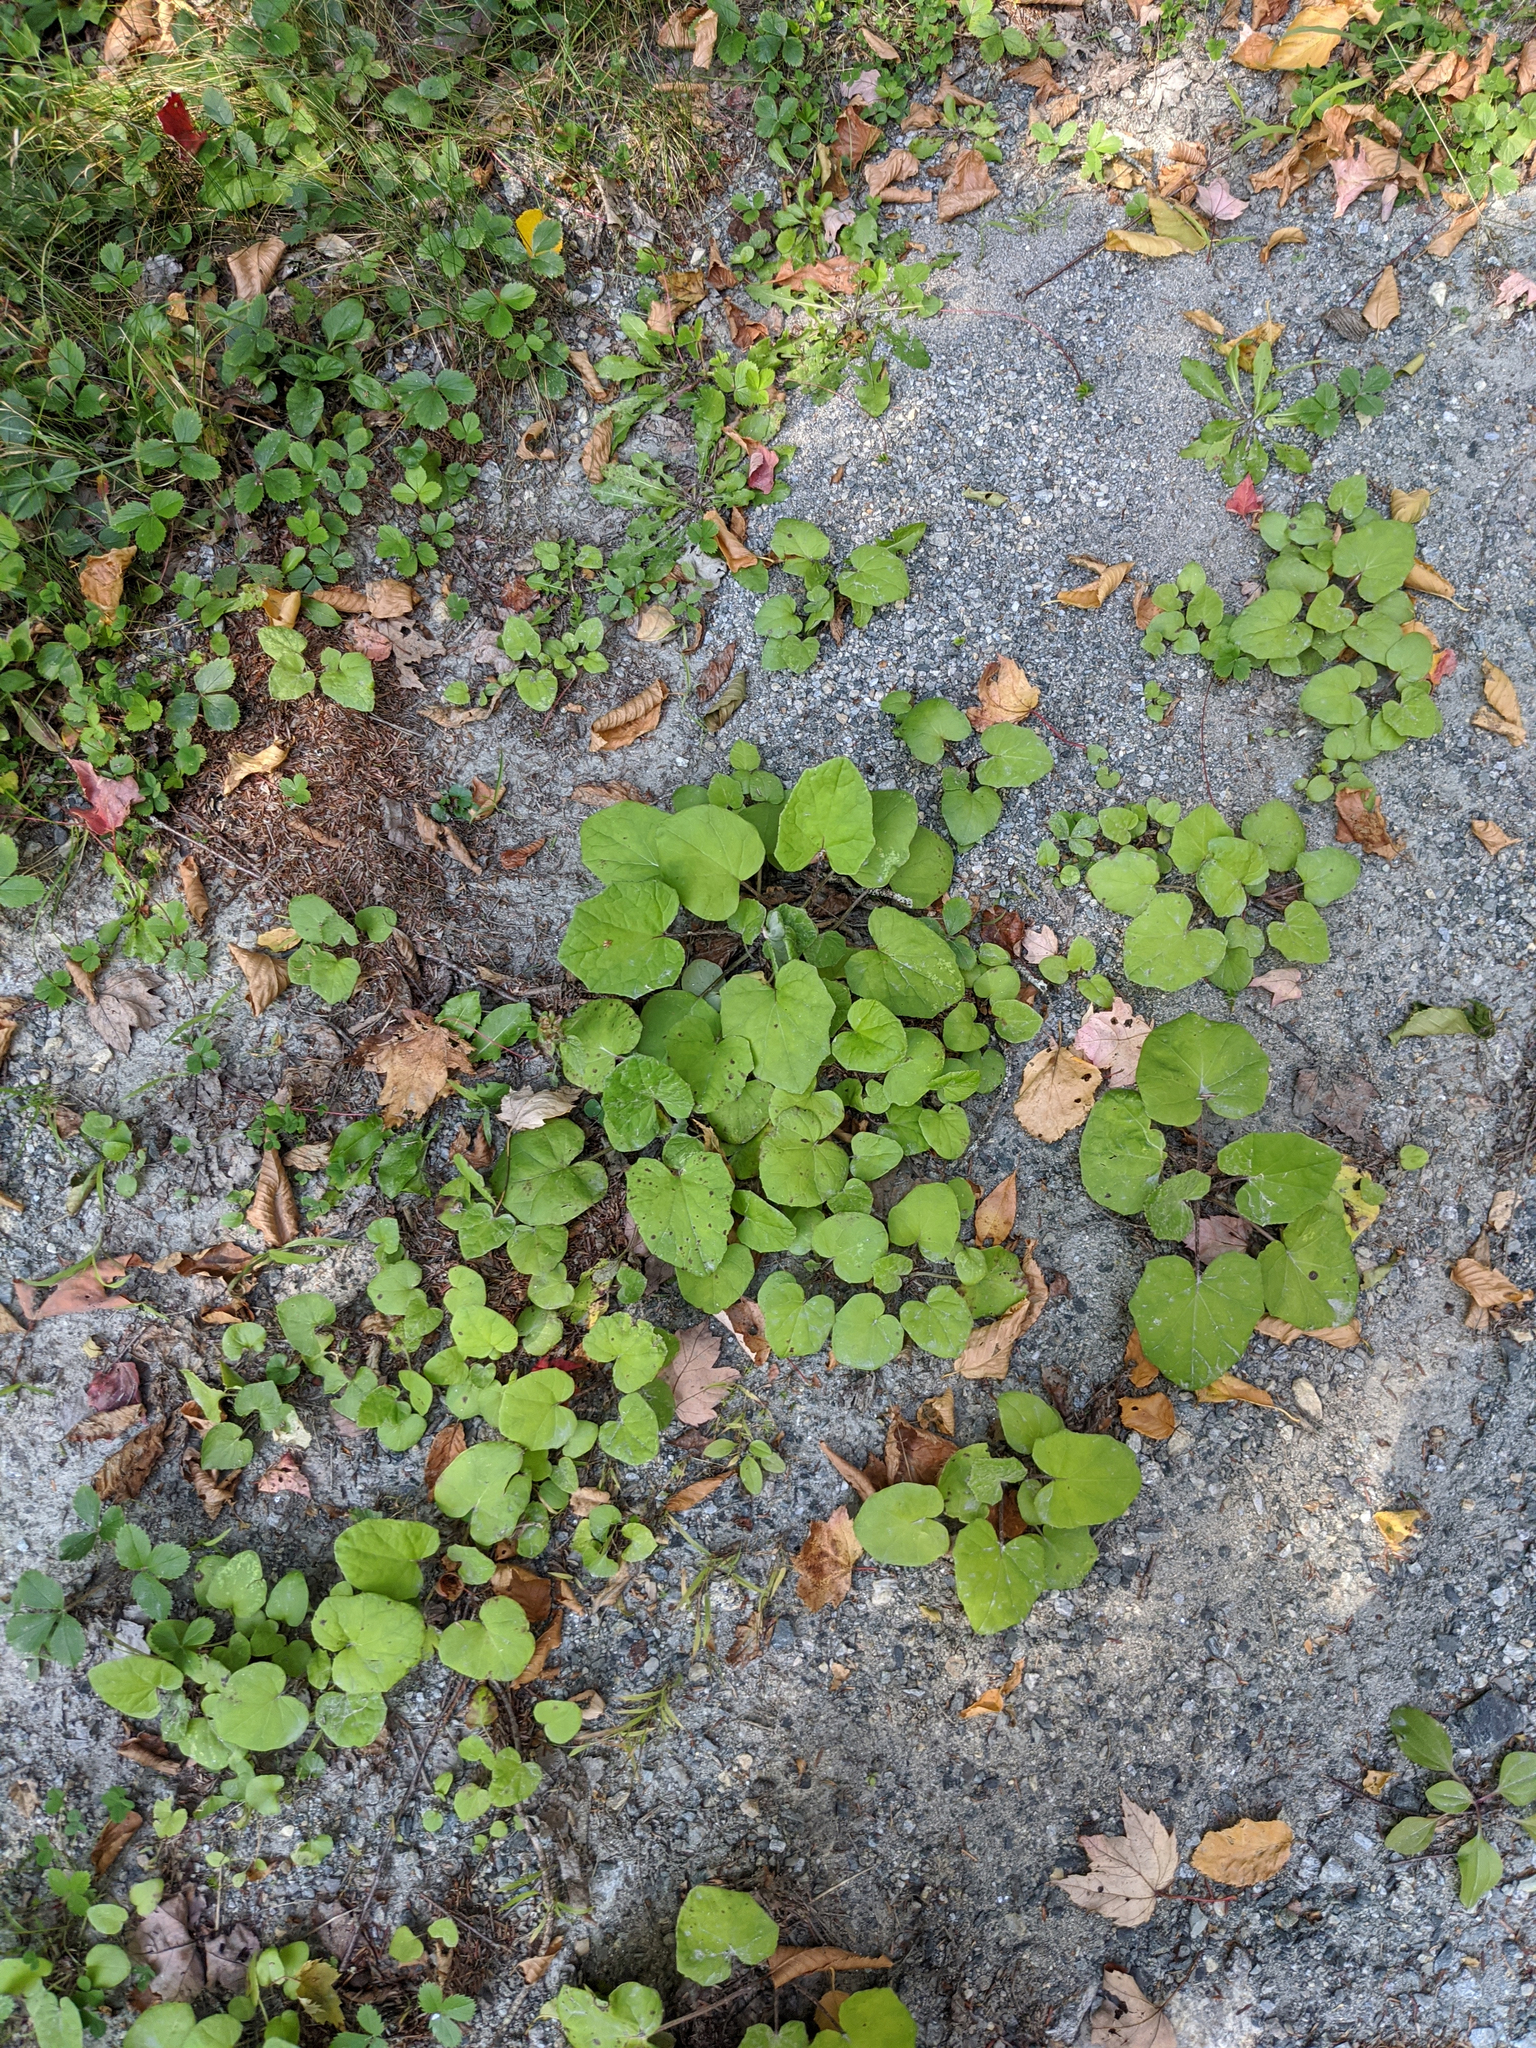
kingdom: Plantae
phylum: Tracheophyta
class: Magnoliopsida
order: Asterales
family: Asteraceae
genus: Tussilago
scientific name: Tussilago farfara
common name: Coltsfoot
